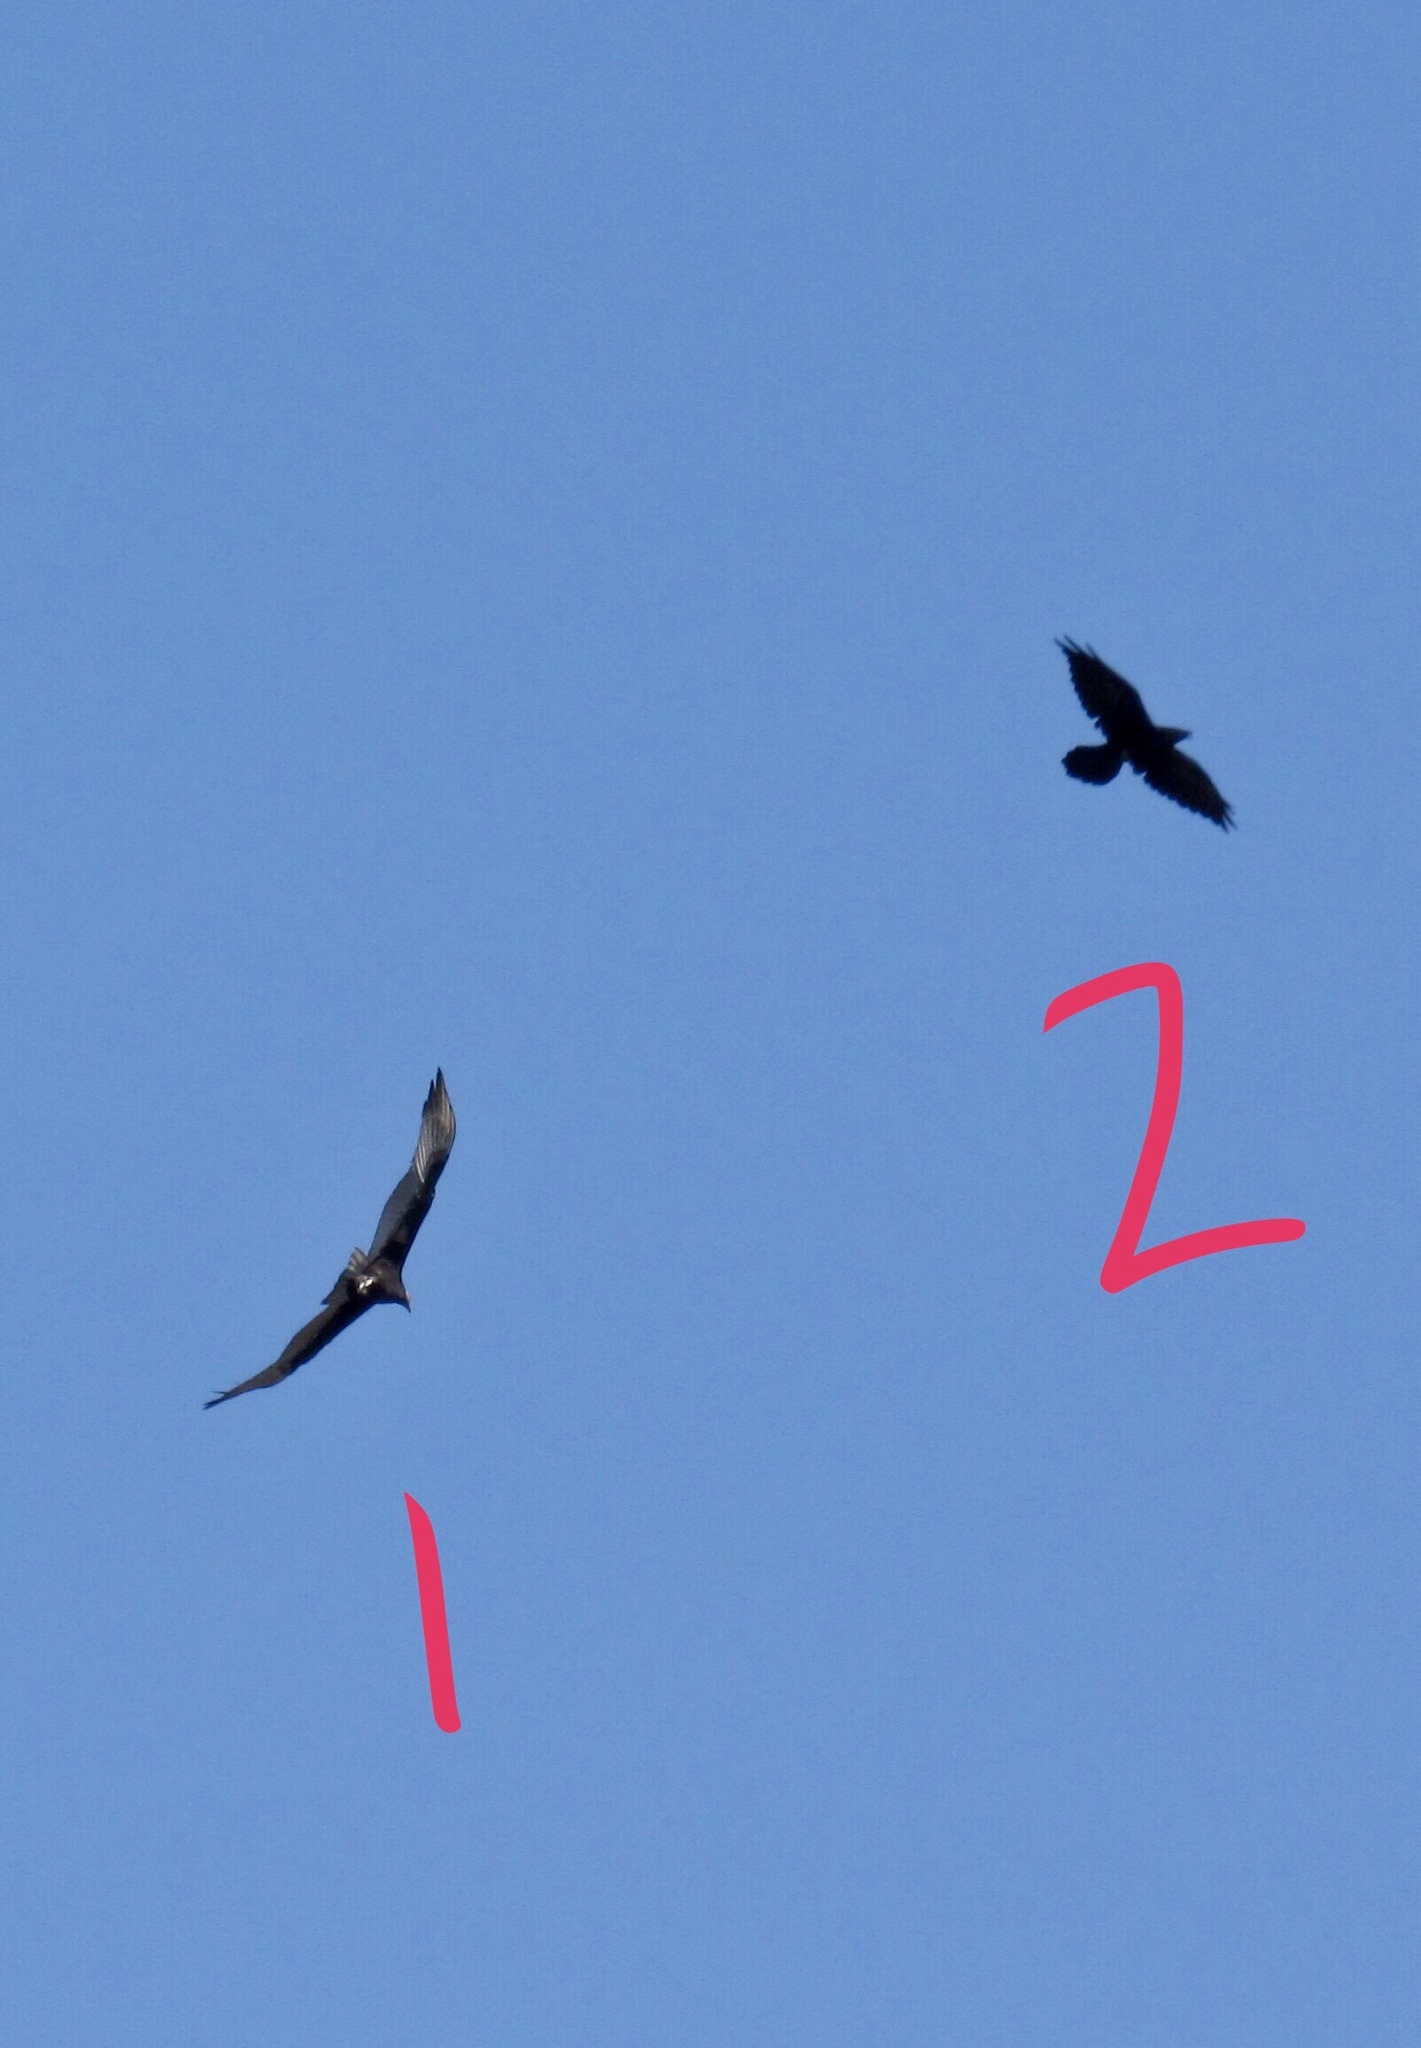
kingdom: Animalia
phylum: Chordata
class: Aves
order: Accipitriformes
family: Cathartidae
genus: Cathartes
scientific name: Cathartes aura
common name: Turkey vulture
